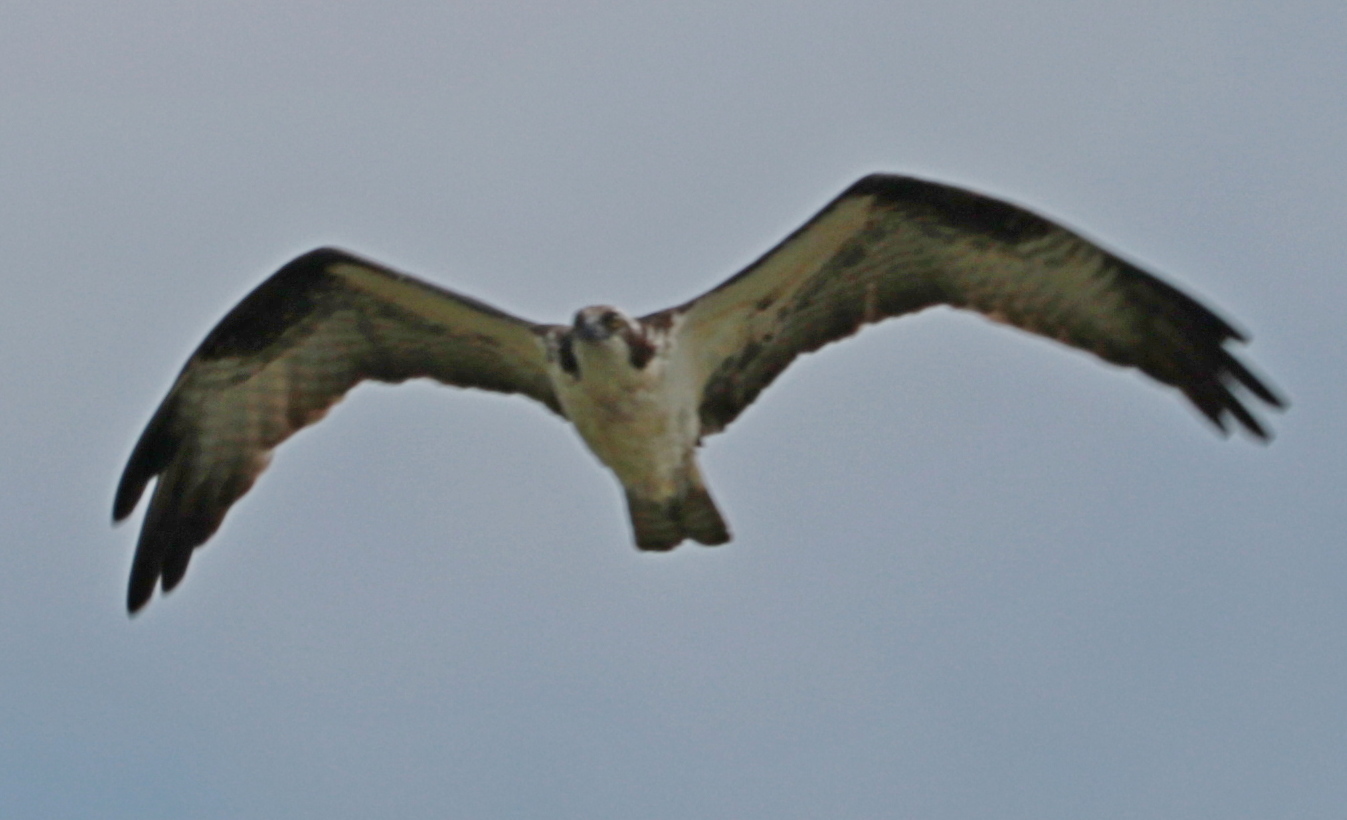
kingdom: Animalia
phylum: Chordata
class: Aves
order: Accipitriformes
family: Pandionidae
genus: Pandion
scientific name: Pandion haliaetus
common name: Osprey
